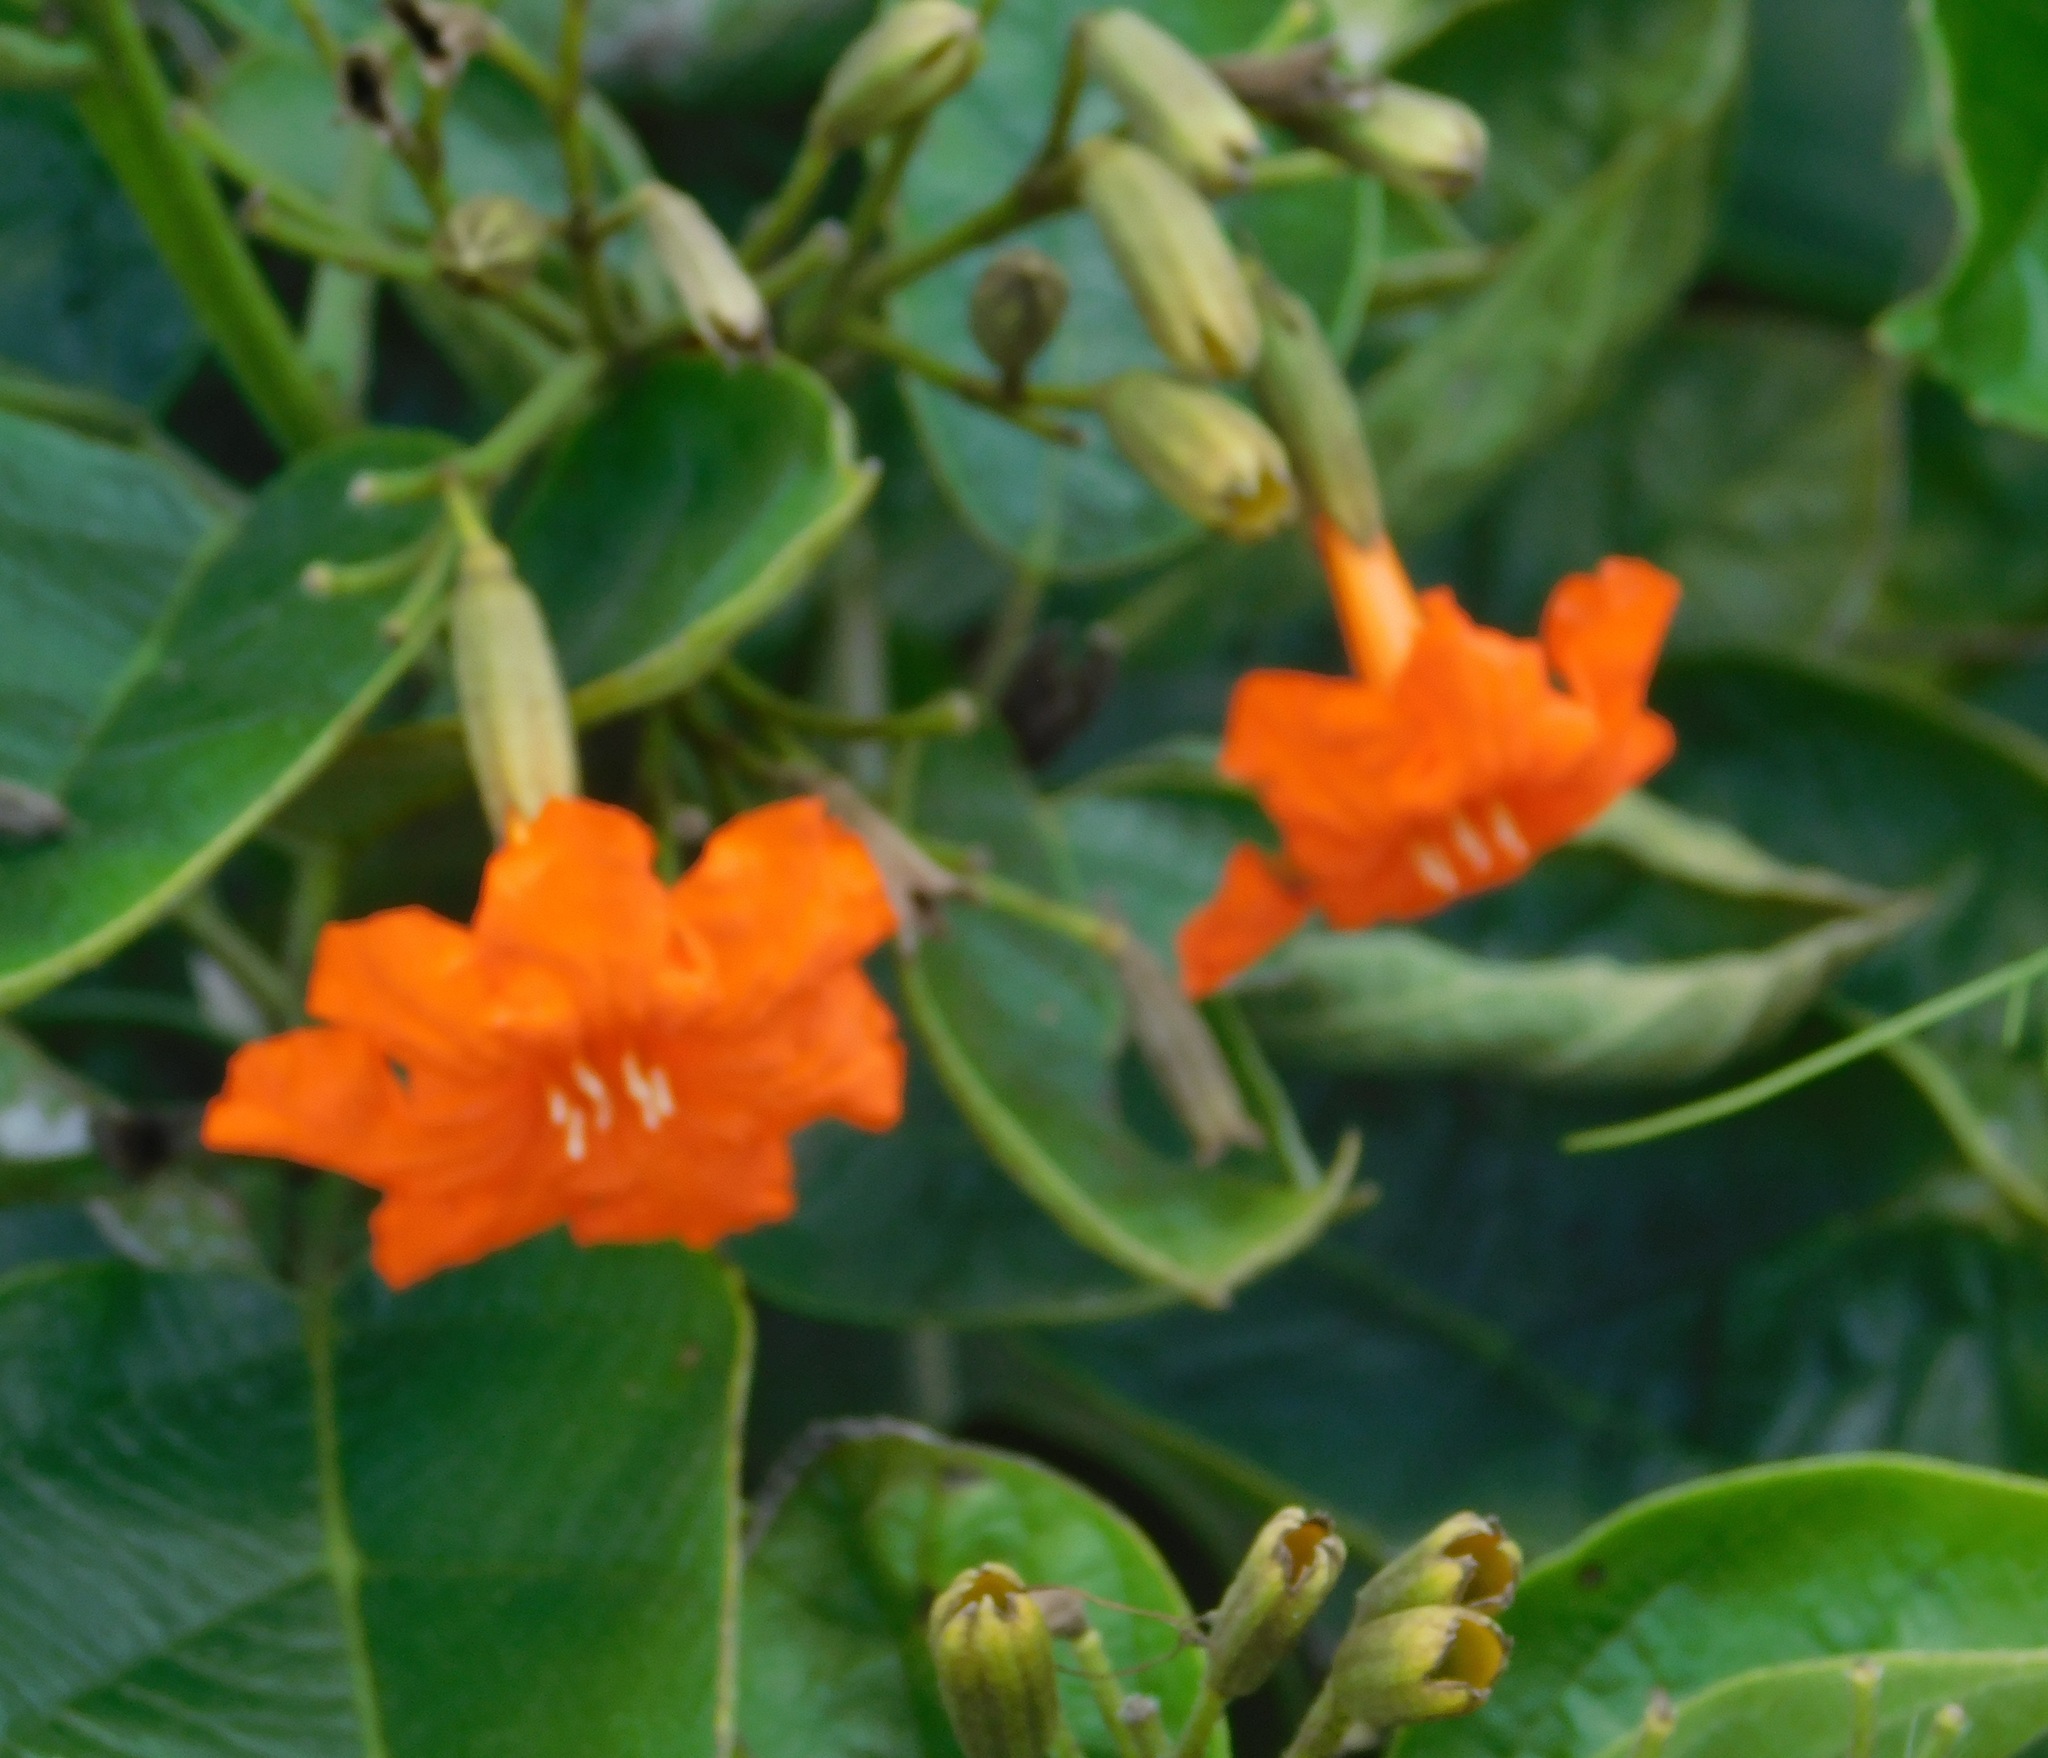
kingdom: Plantae
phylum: Tracheophyta
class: Magnoliopsida
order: Boraginales
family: Cordiaceae
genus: Cordia
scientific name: Cordia sebestena
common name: Largeleaf geigertree
